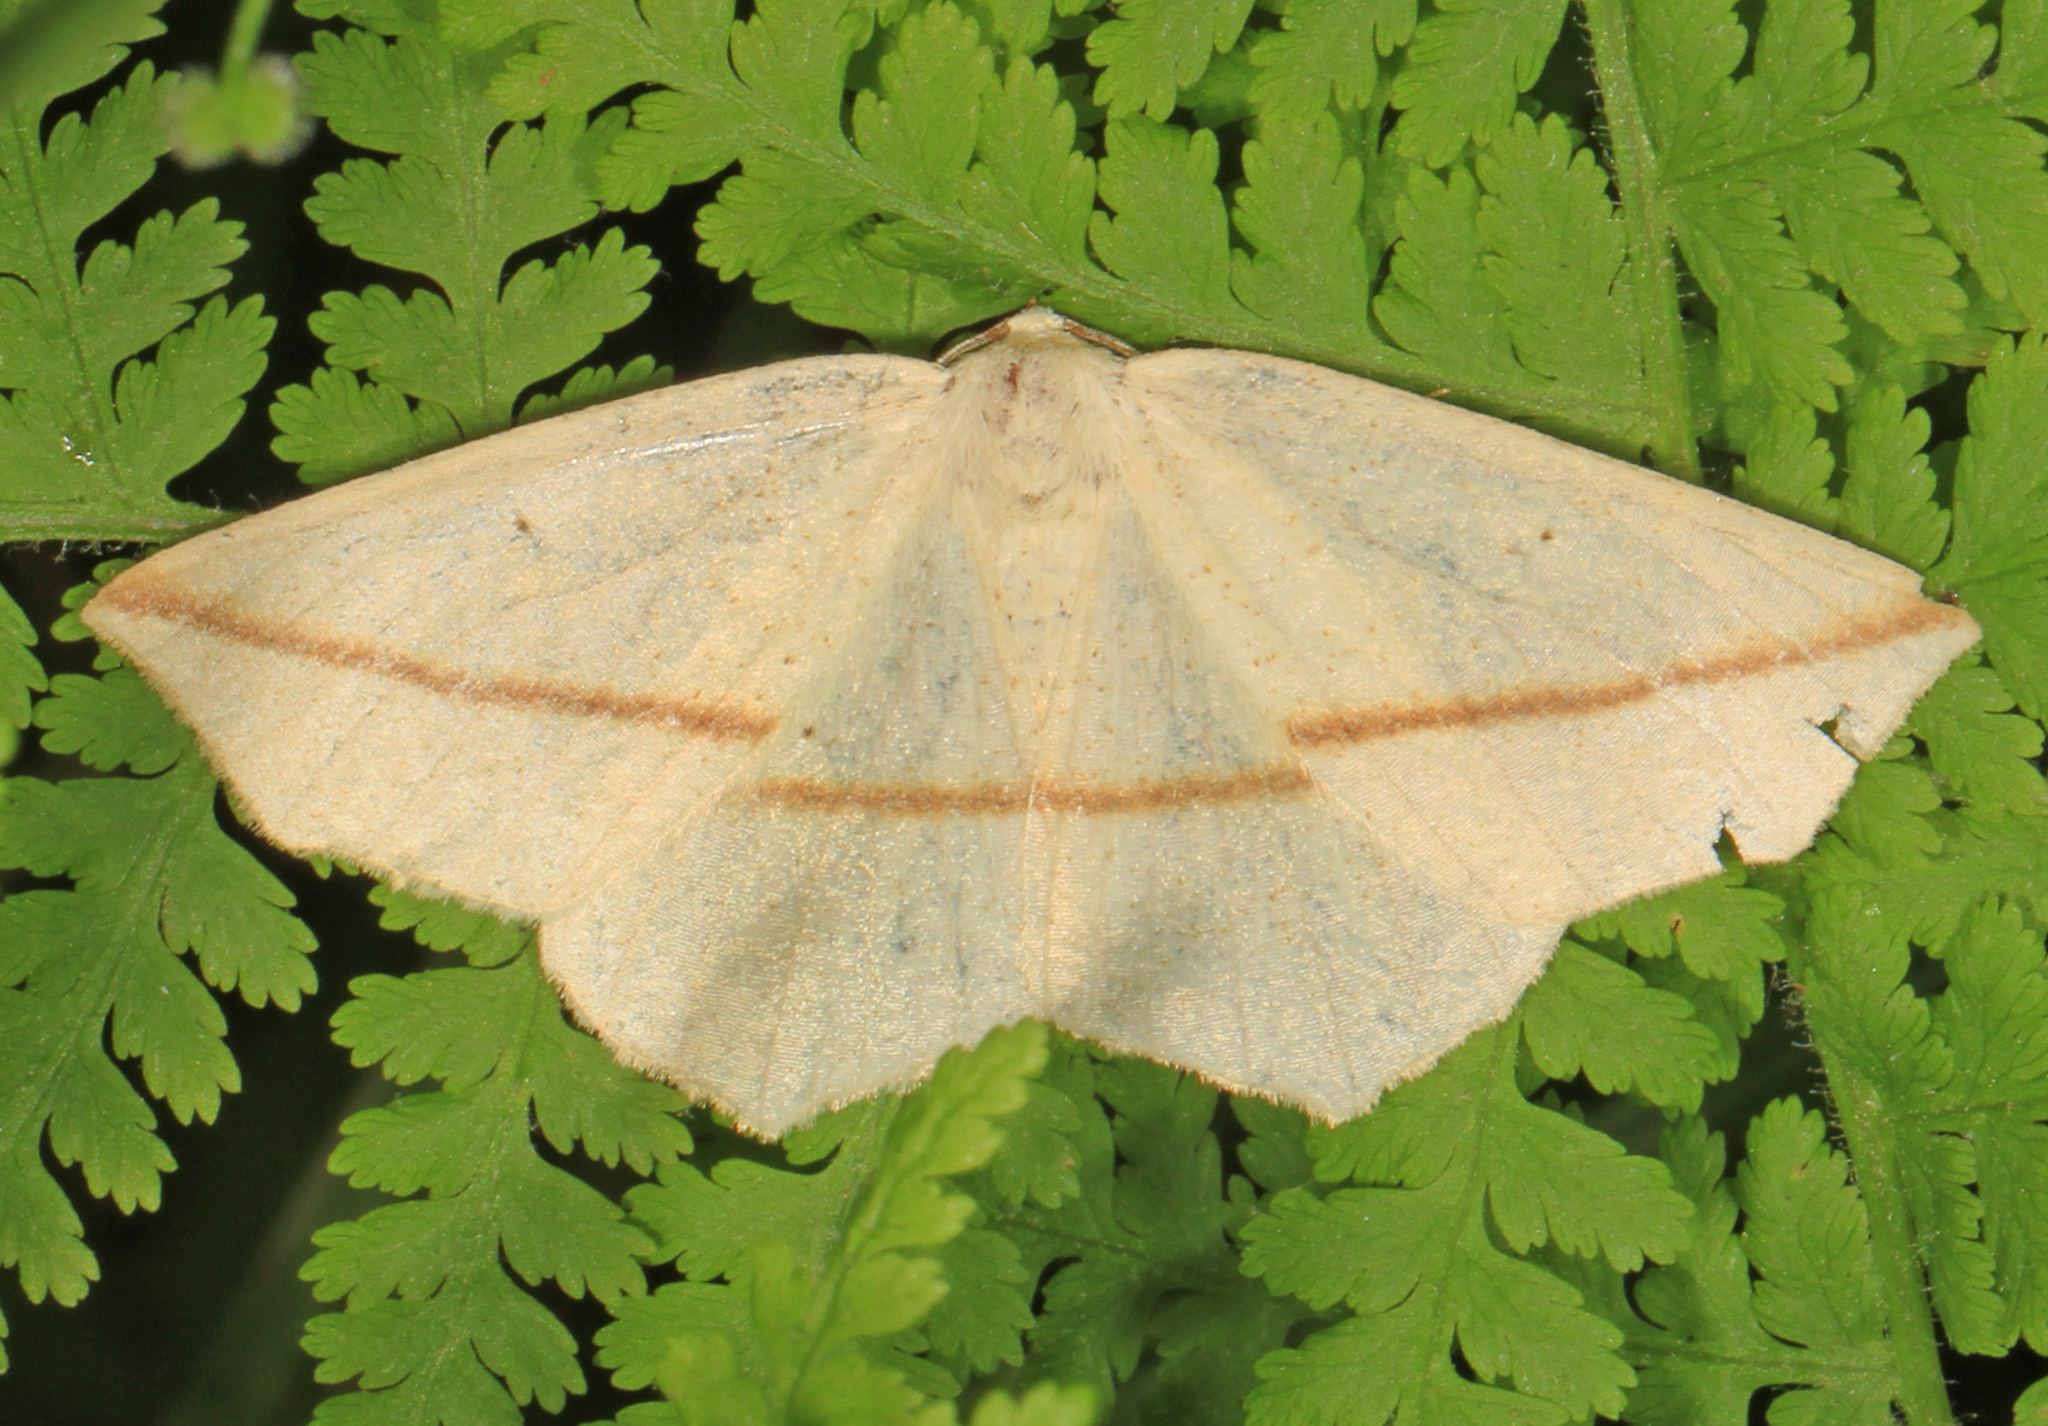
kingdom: Animalia
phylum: Arthropoda
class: Insecta
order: Lepidoptera
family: Geometridae
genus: Tetracis
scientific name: Tetracis crocallata
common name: Yellow slant-line
